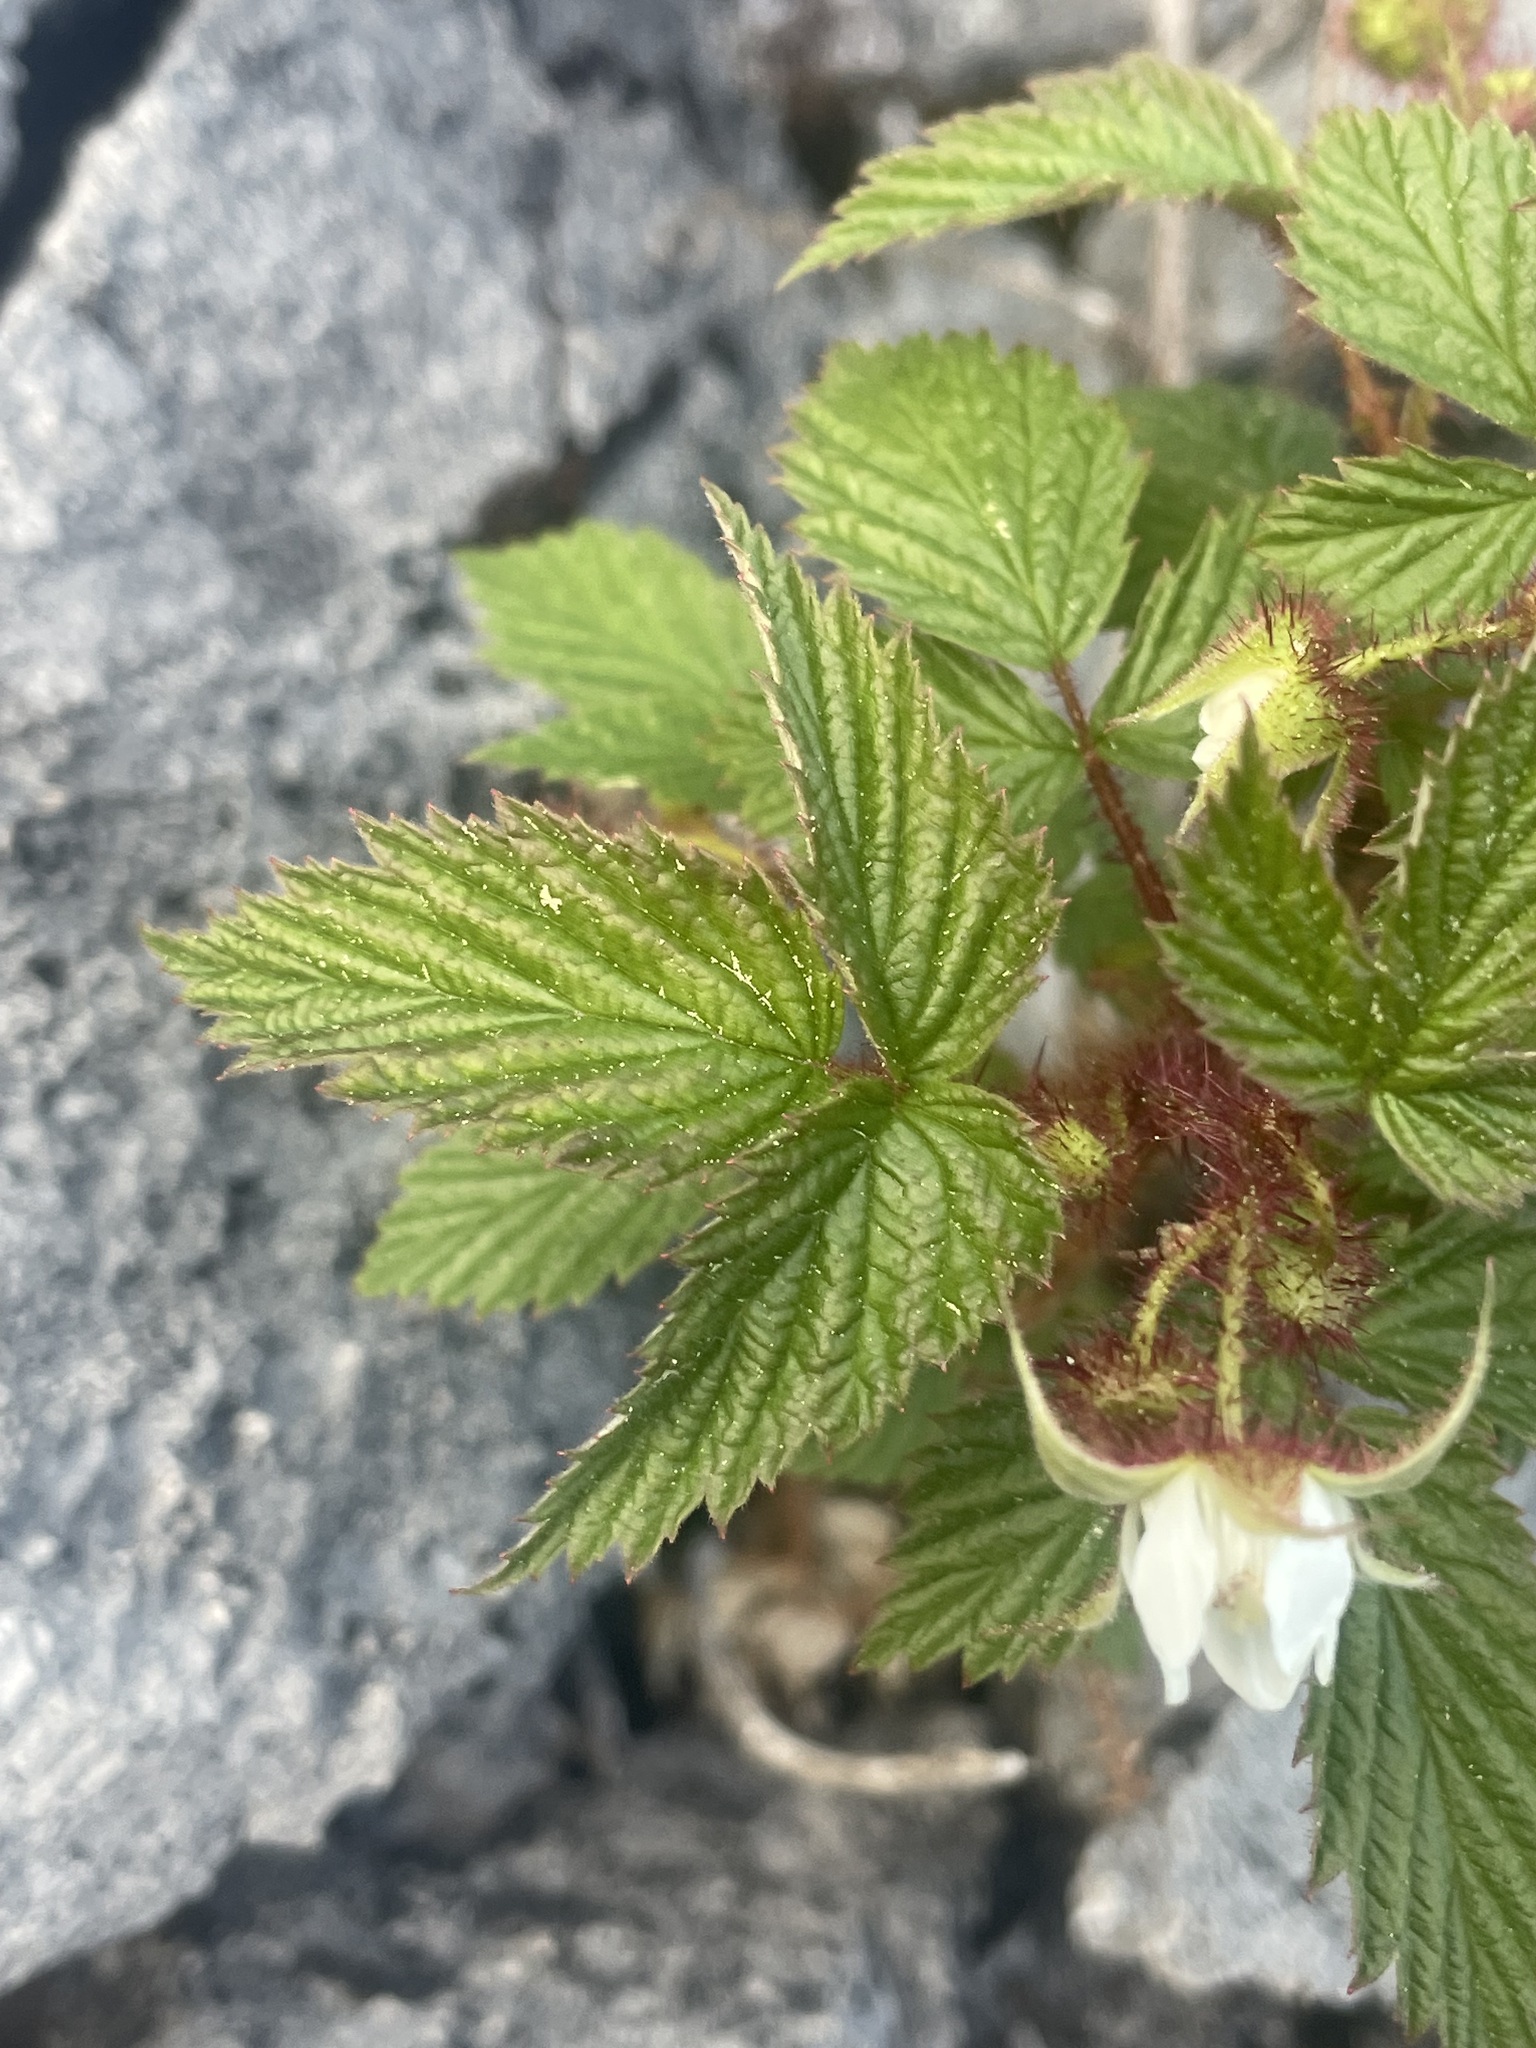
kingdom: Plantae
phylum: Tracheophyta
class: Magnoliopsida
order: Rosales
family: Rosaceae
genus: Rubus
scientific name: Rubus idaeus
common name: Raspberry
